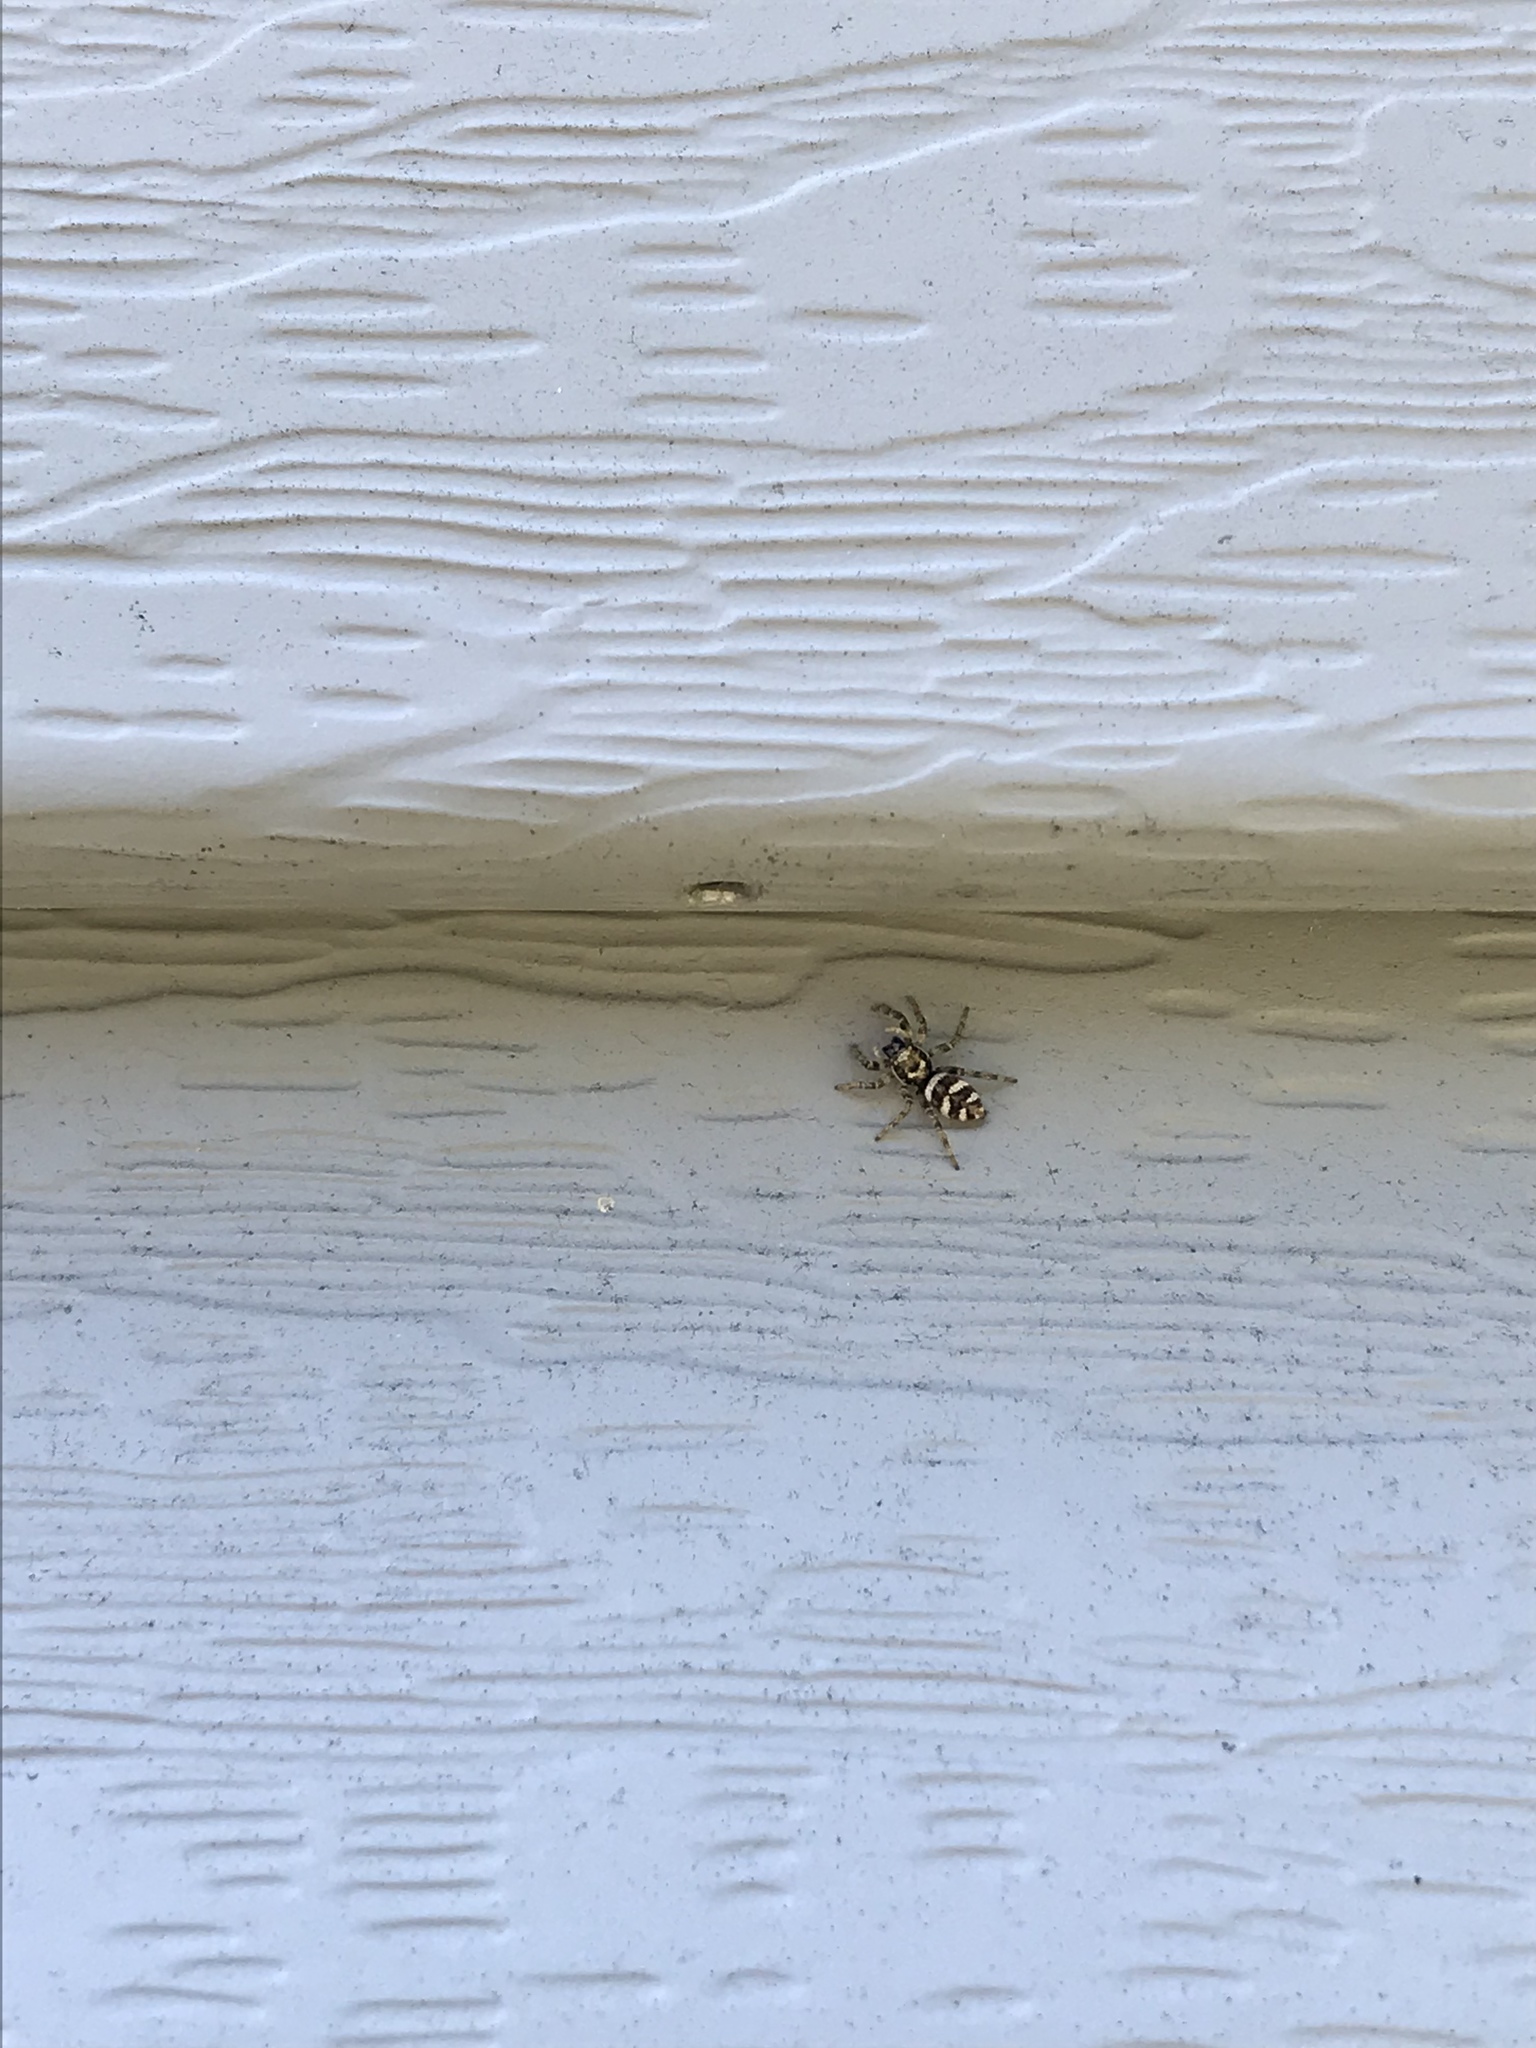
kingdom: Animalia
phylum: Arthropoda
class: Arachnida
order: Araneae
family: Salticidae
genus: Salticus
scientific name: Salticus scenicus
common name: Zebra jumper
